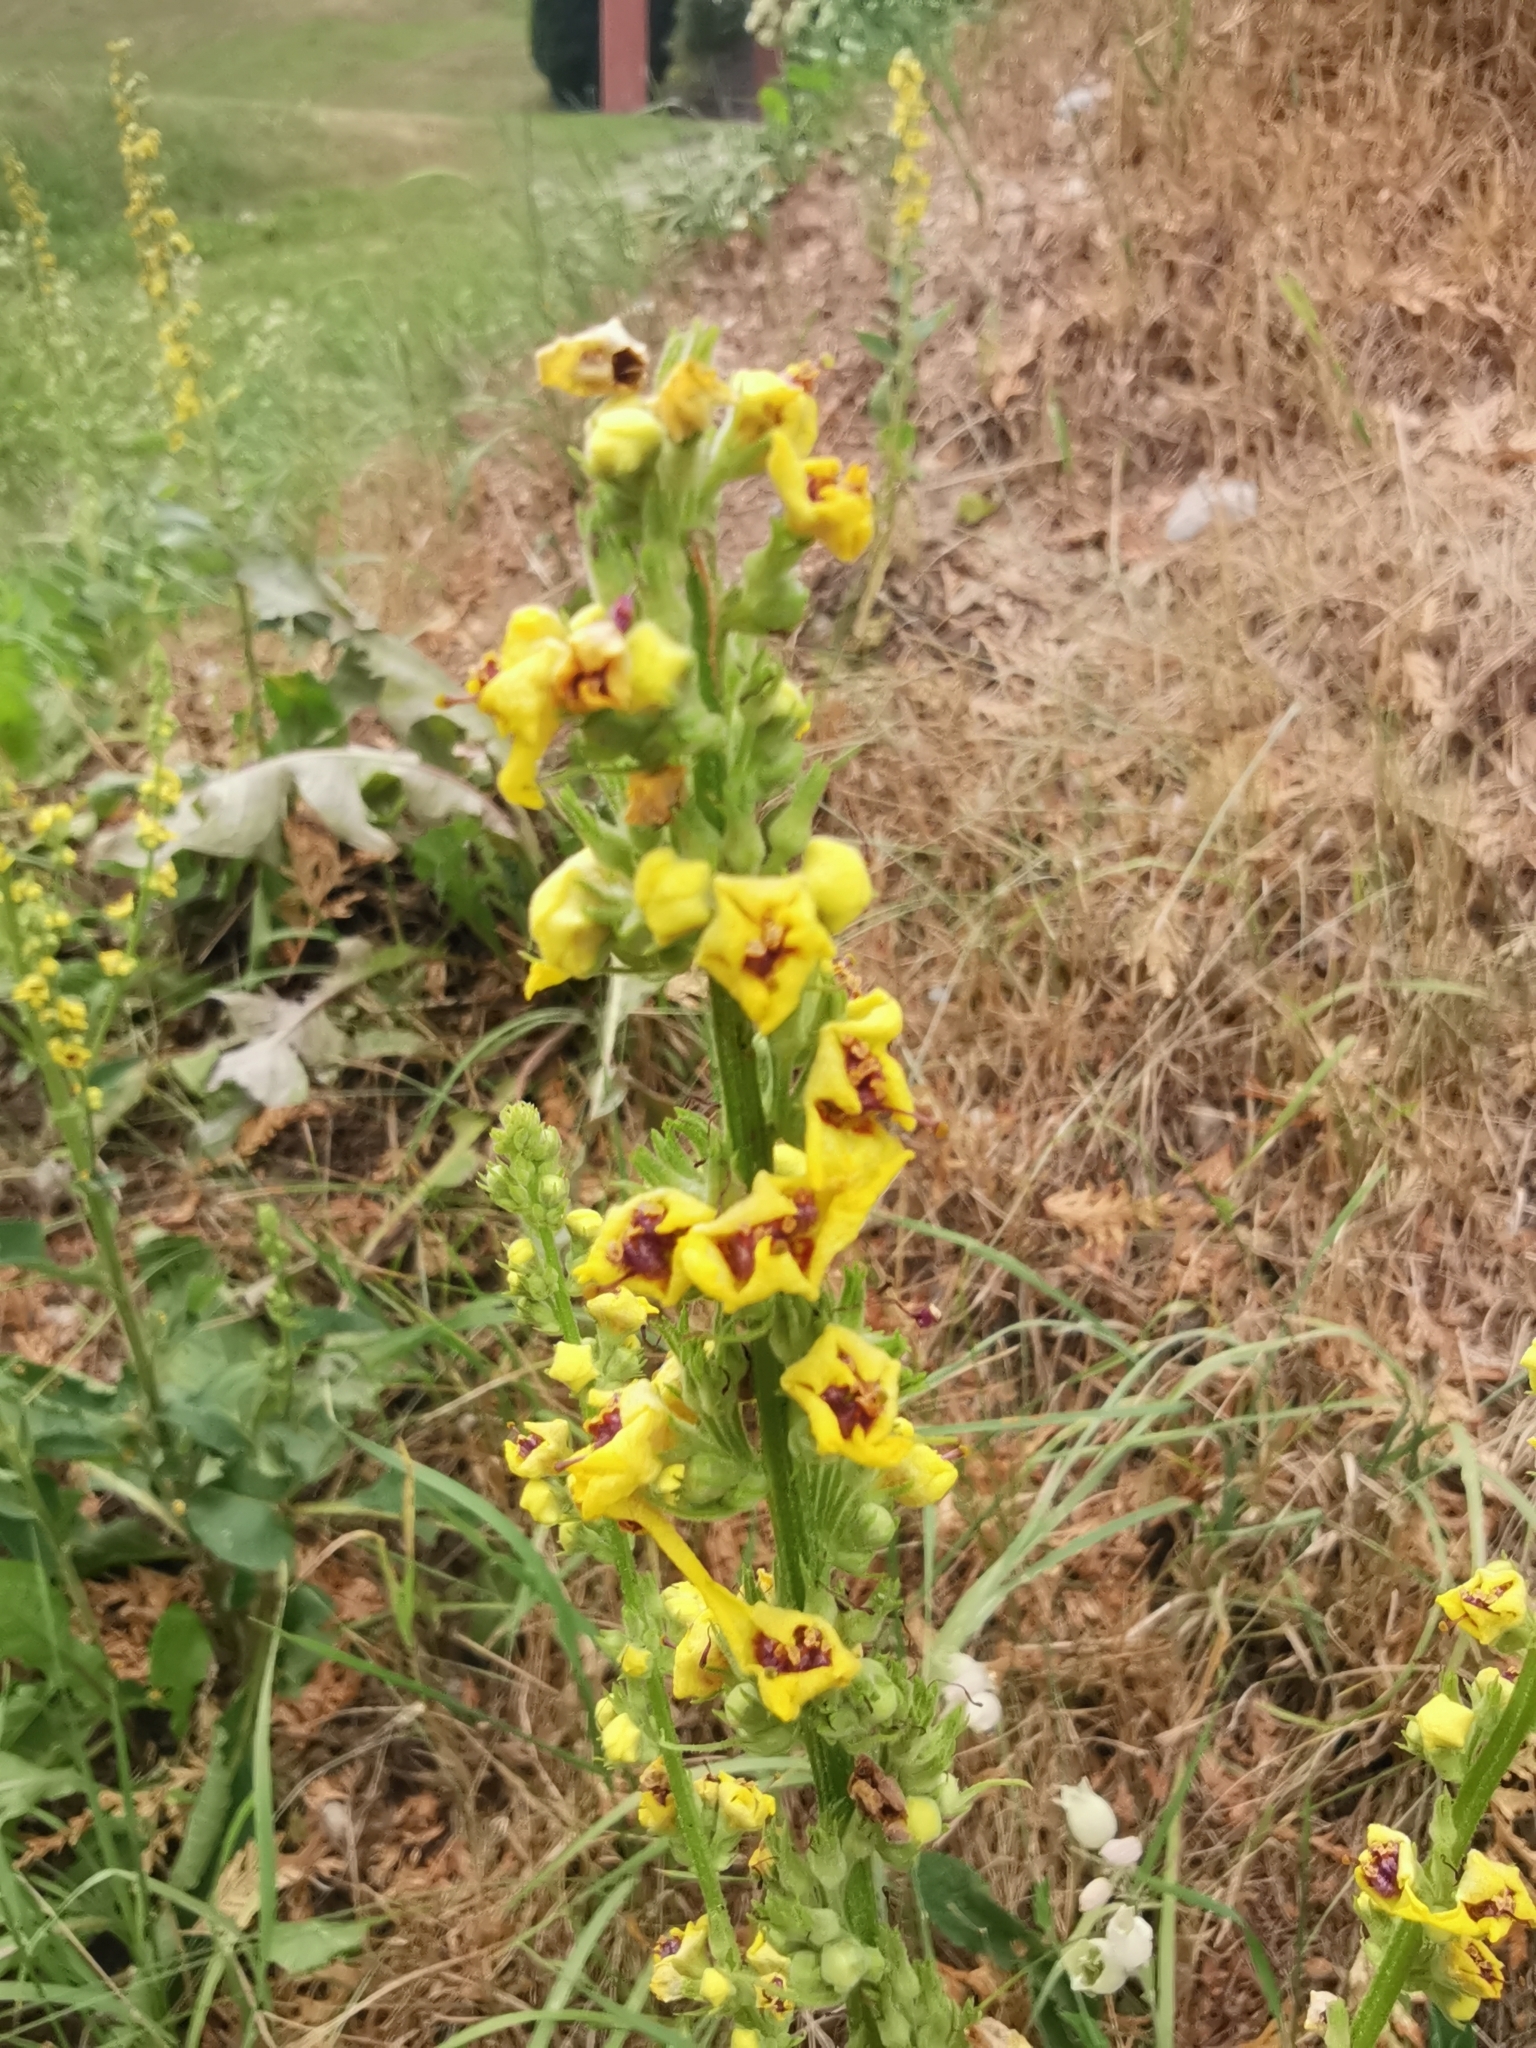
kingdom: Plantae
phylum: Tracheophyta
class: Magnoliopsida
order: Lamiales
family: Scrophulariaceae
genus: Verbascum
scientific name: Verbascum chaixii
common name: Nettle-leaved mullein
